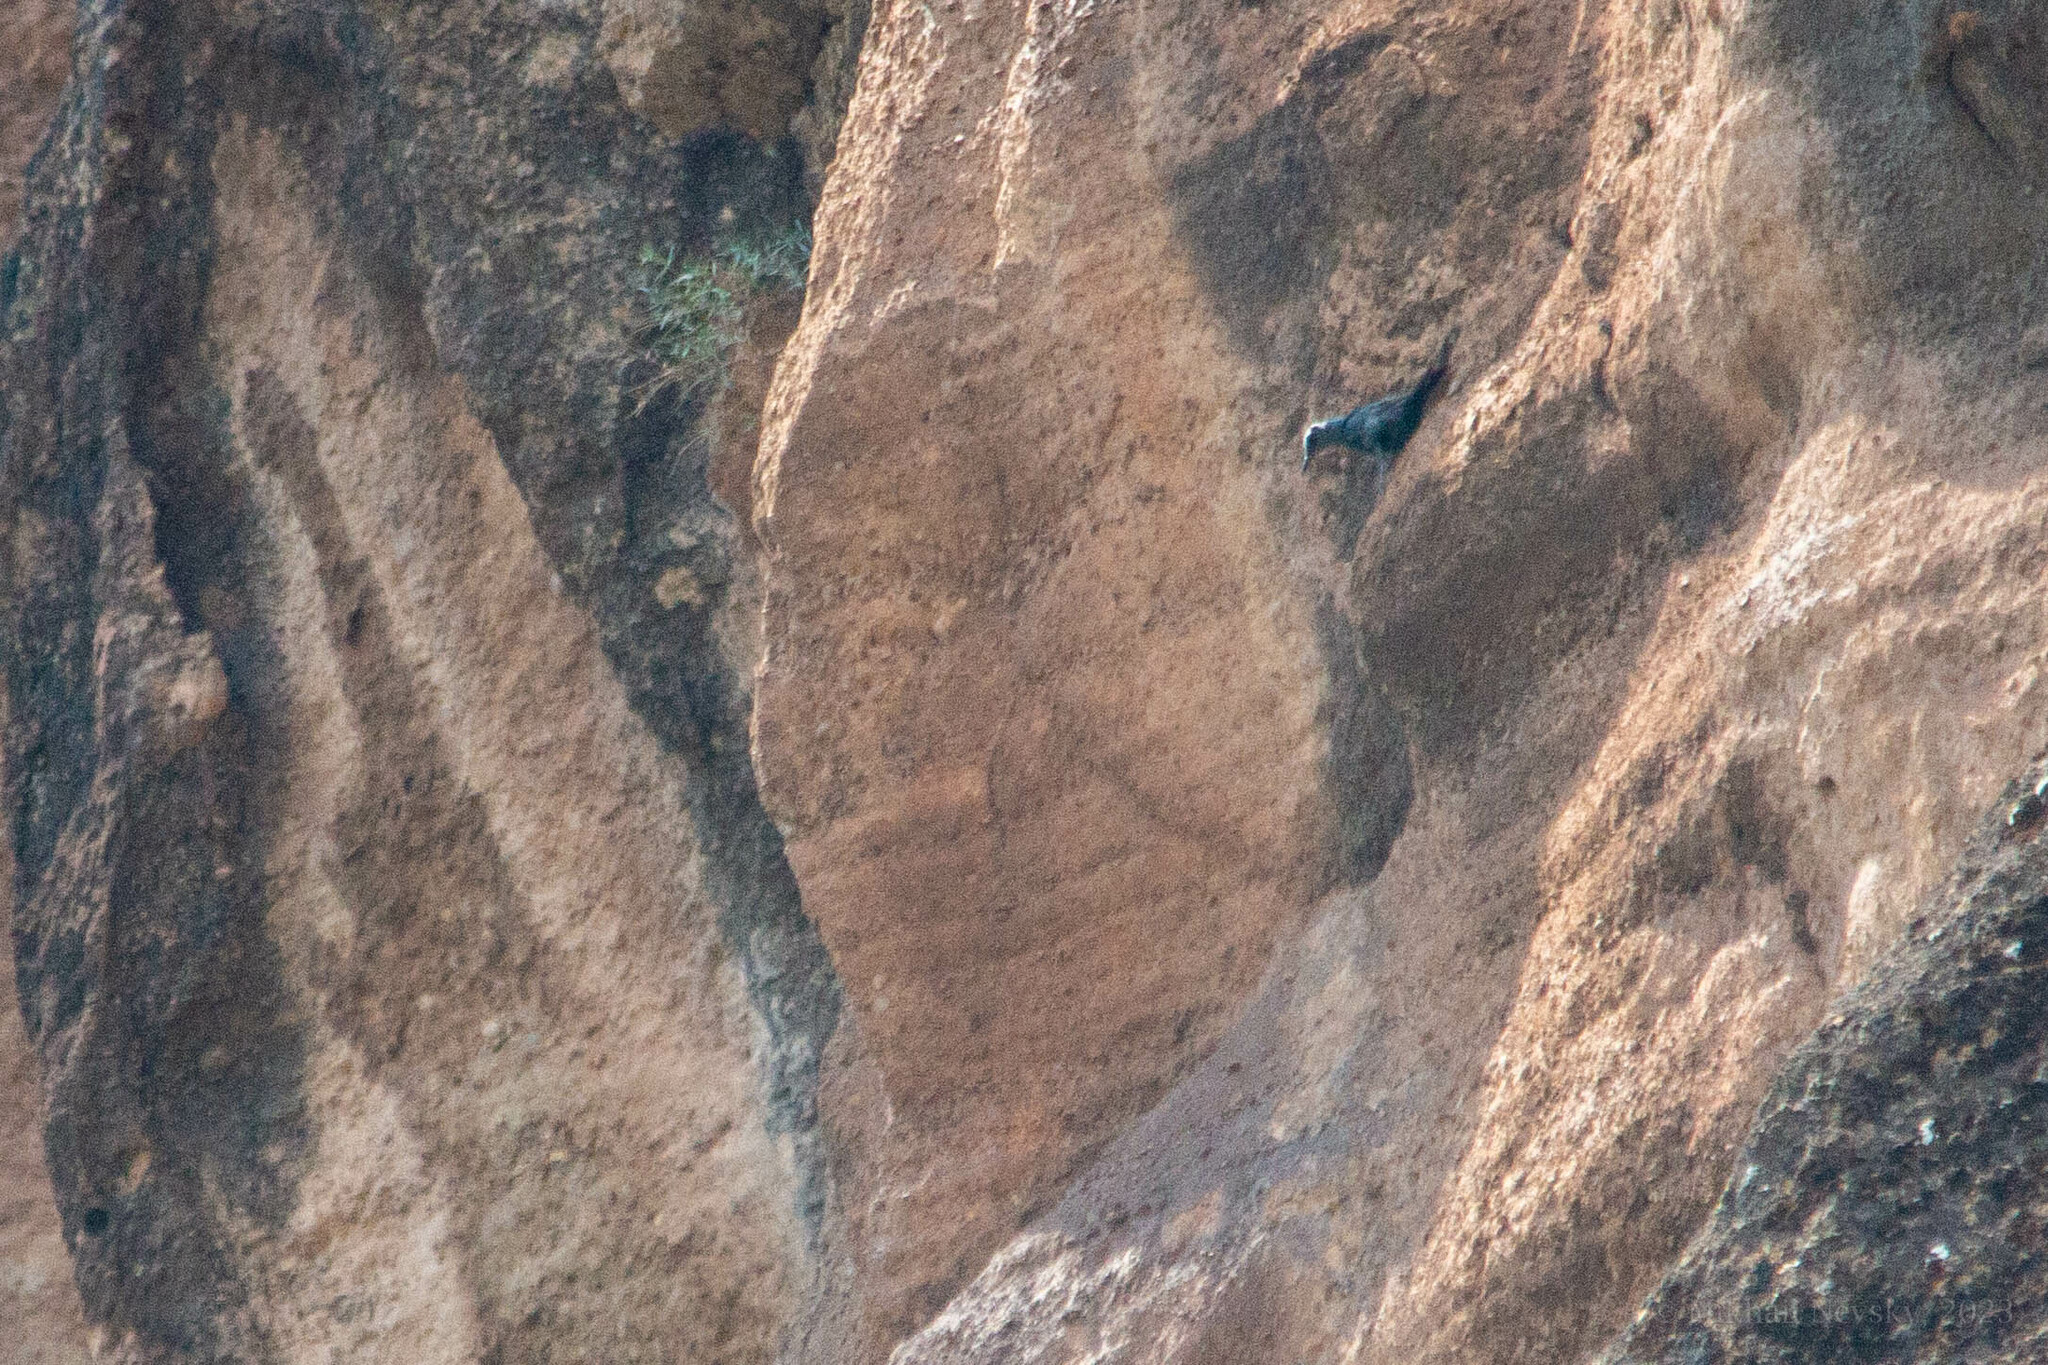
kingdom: Animalia
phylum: Chordata
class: Aves
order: Passeriformes
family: Muscicapidae
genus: Monticola
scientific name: Monticola solitarius
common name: Blue rock thrush
